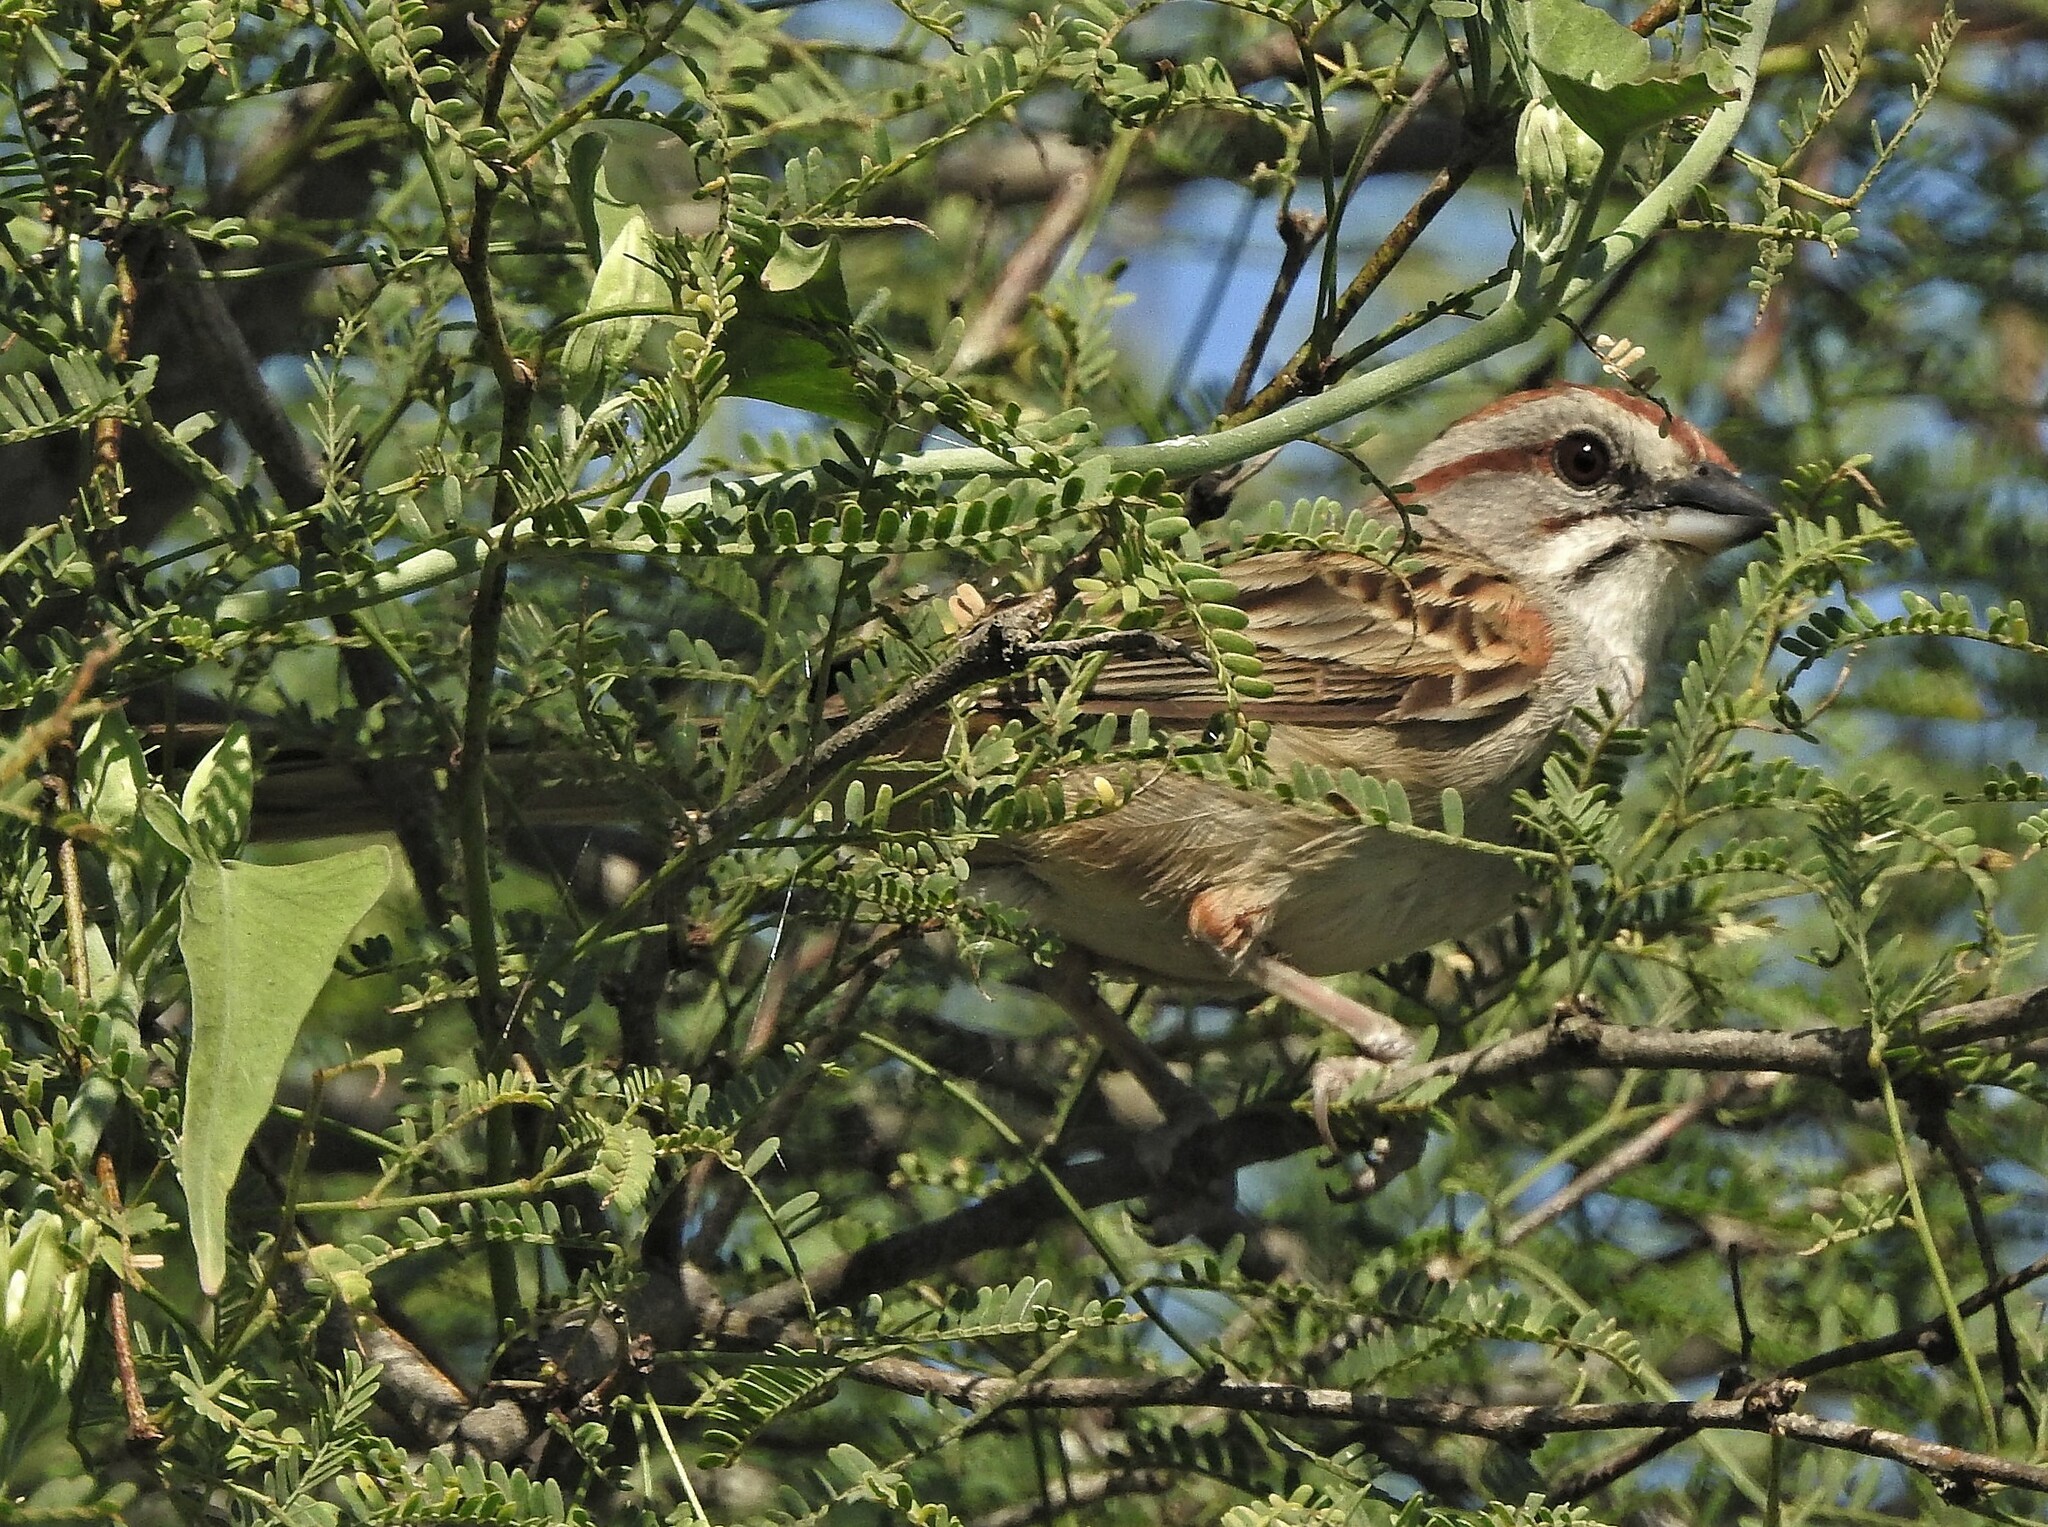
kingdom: Animalia
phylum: Chordata
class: Aves
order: Passeriformes
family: Passerellidae
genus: Rhynchospiza
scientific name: Rhynchospiza strigiceps
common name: Stripe-capped sparrow
